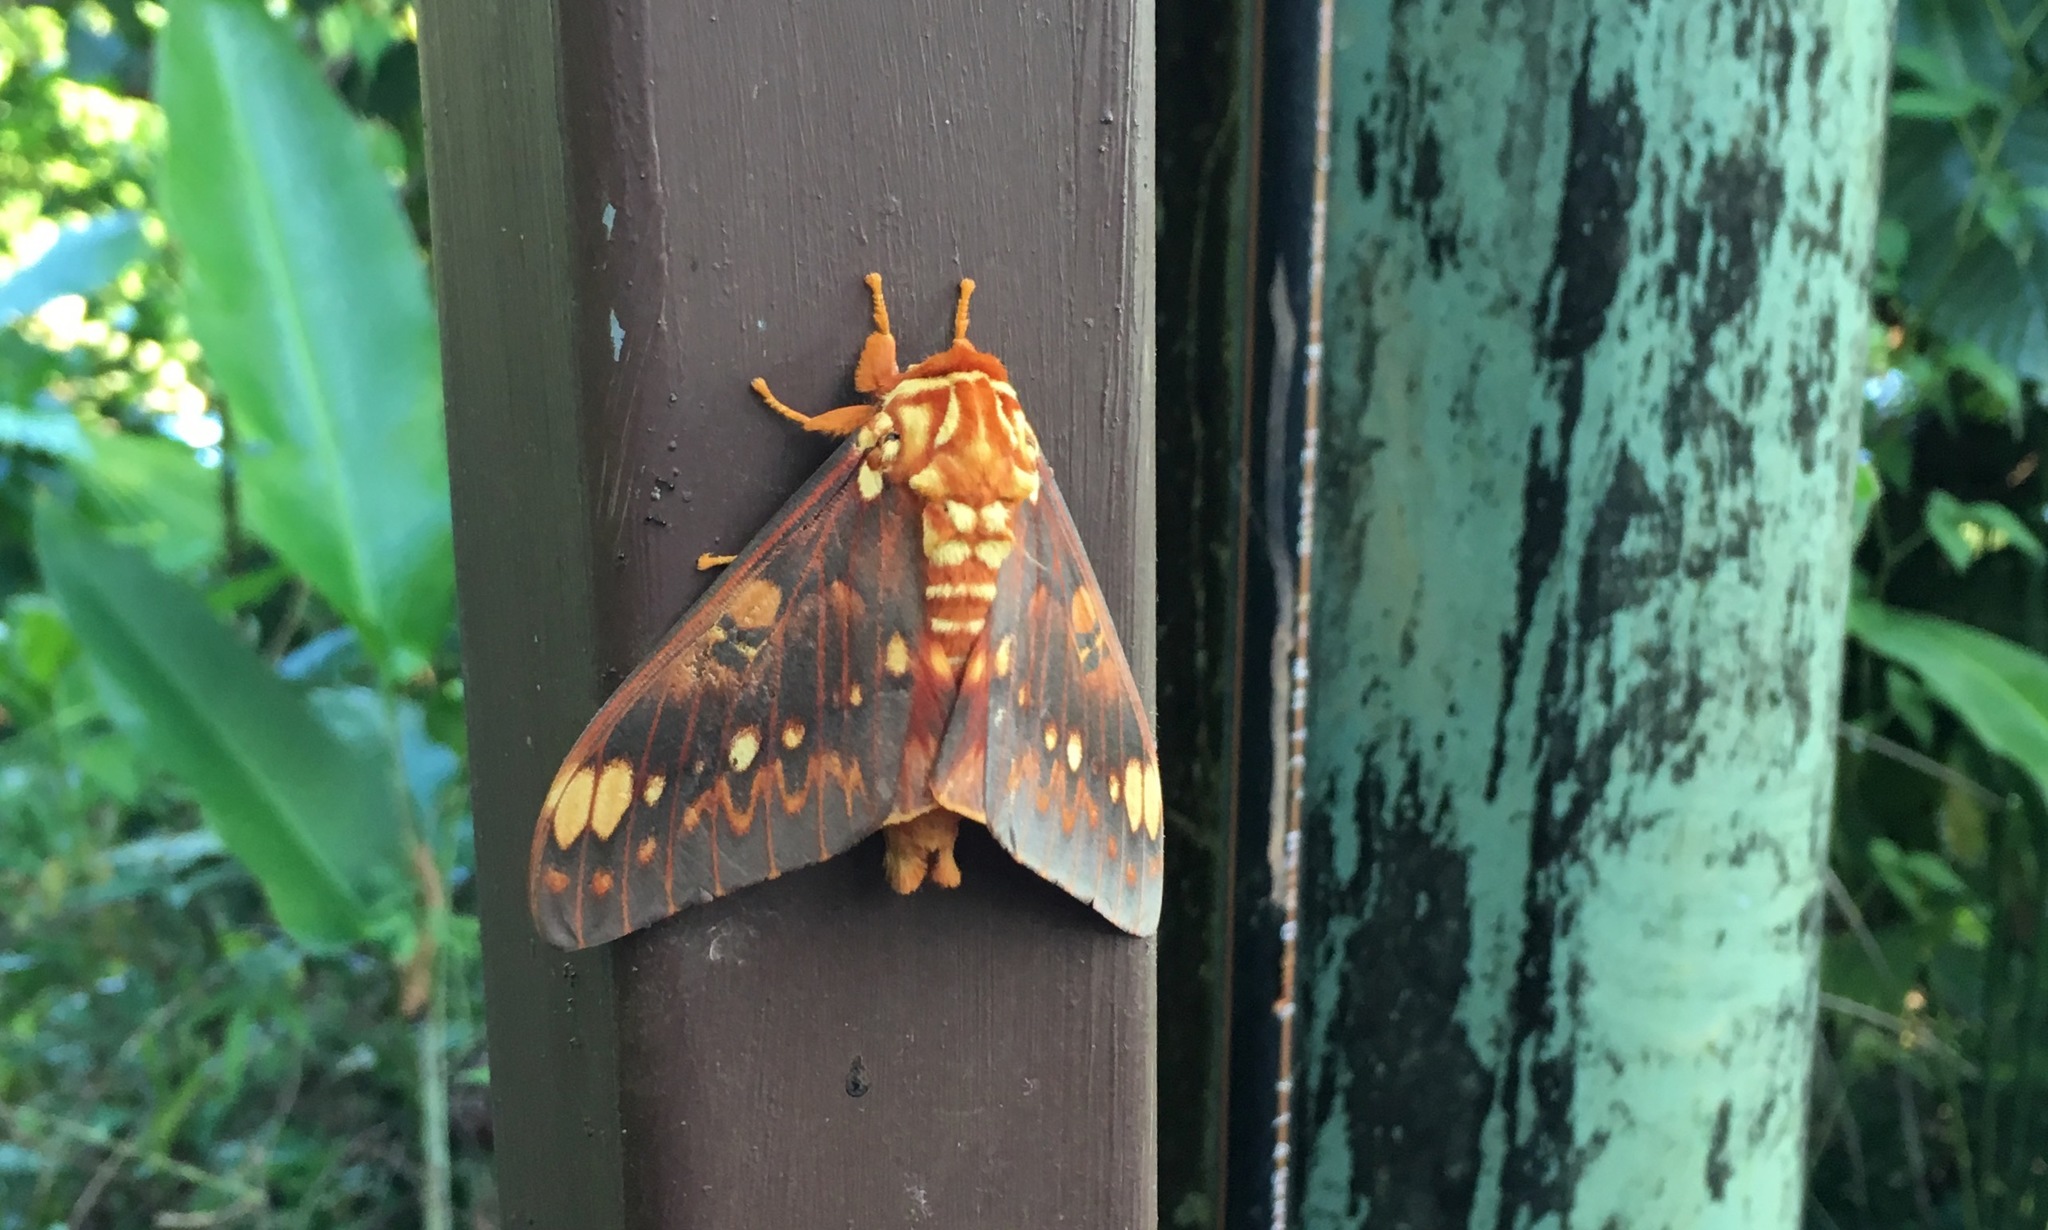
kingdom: Animalia
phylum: Arthropoda
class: Insecta
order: Lepidoptera
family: Saturniidae
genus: Citheronia
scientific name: Citheronia bellavista
